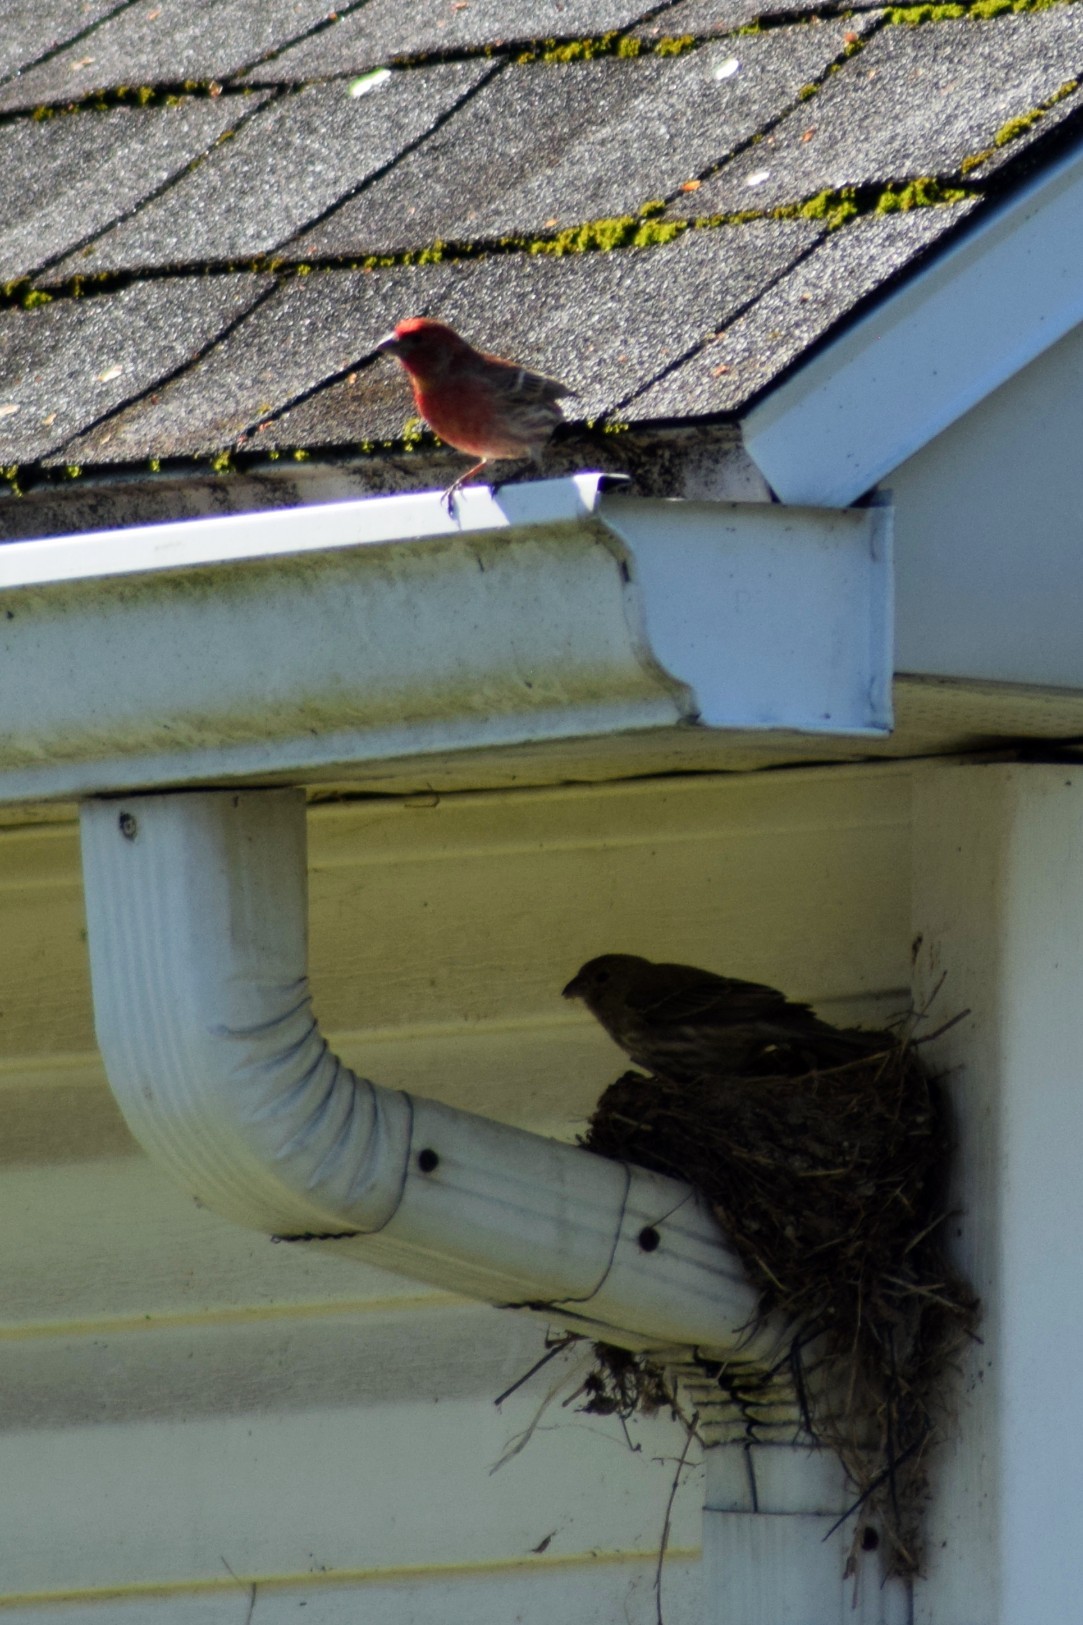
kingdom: Animalia
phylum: Chordata
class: Aves
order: Passeriformes
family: Fringillidae
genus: Haemorhous
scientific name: Haemorhous mexicanus
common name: House finch
